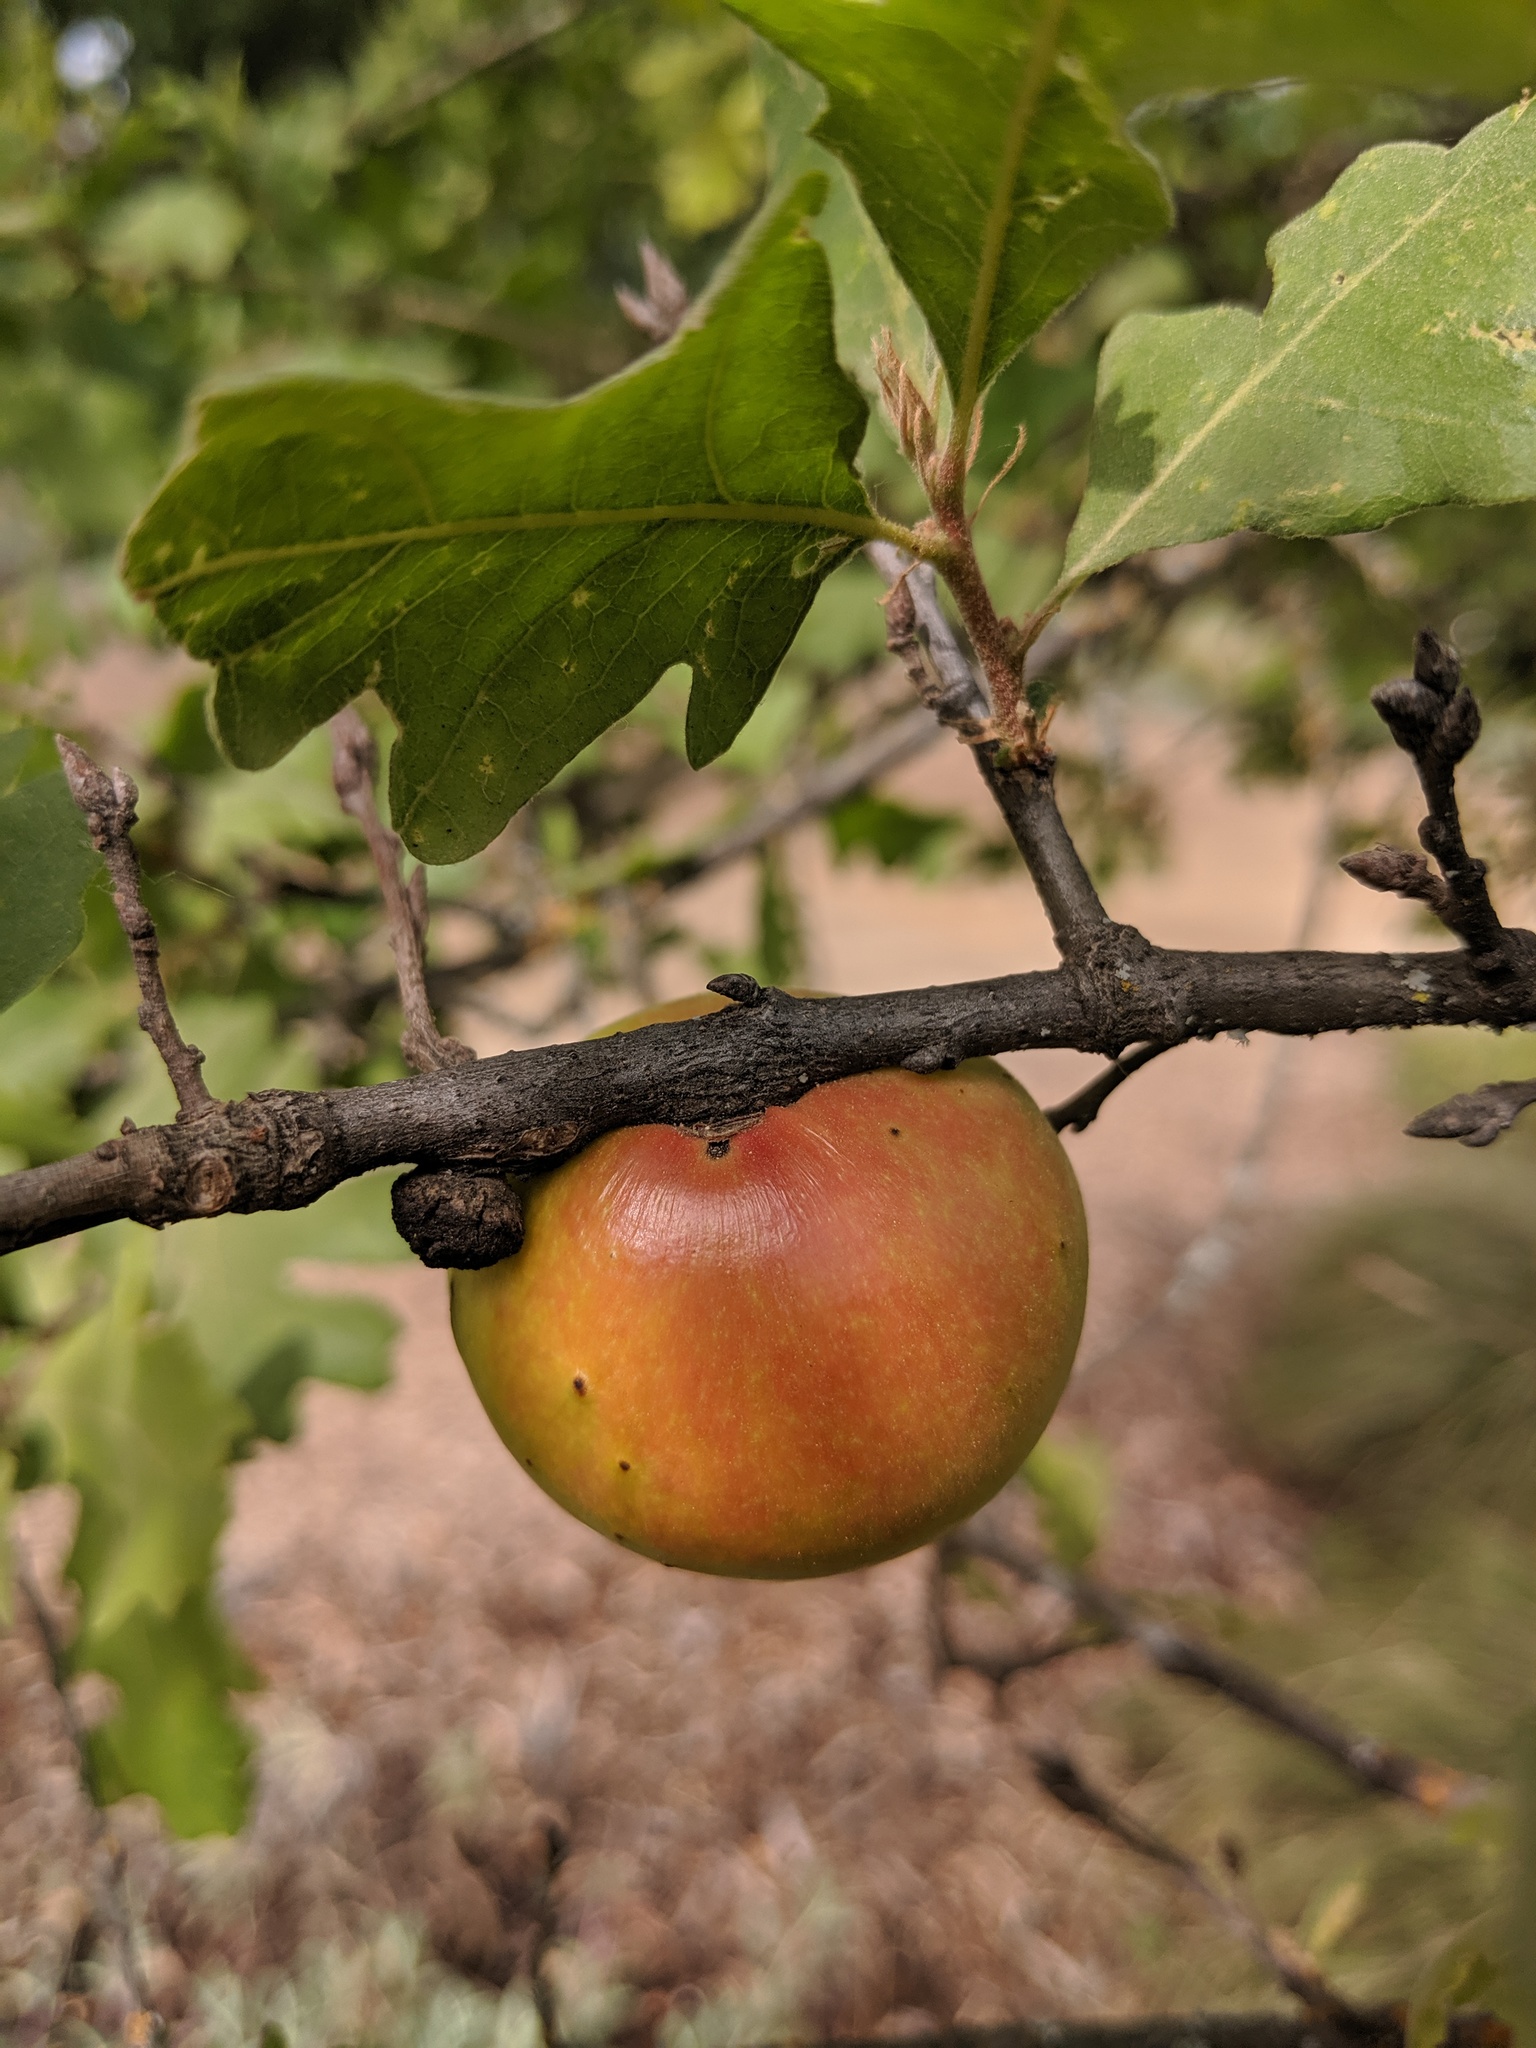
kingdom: Animalia
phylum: Arthropoda
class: Insecta
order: Hymenoptera
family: Cynipidae
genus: Andricus
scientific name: Andricus quercuscalifornicus
